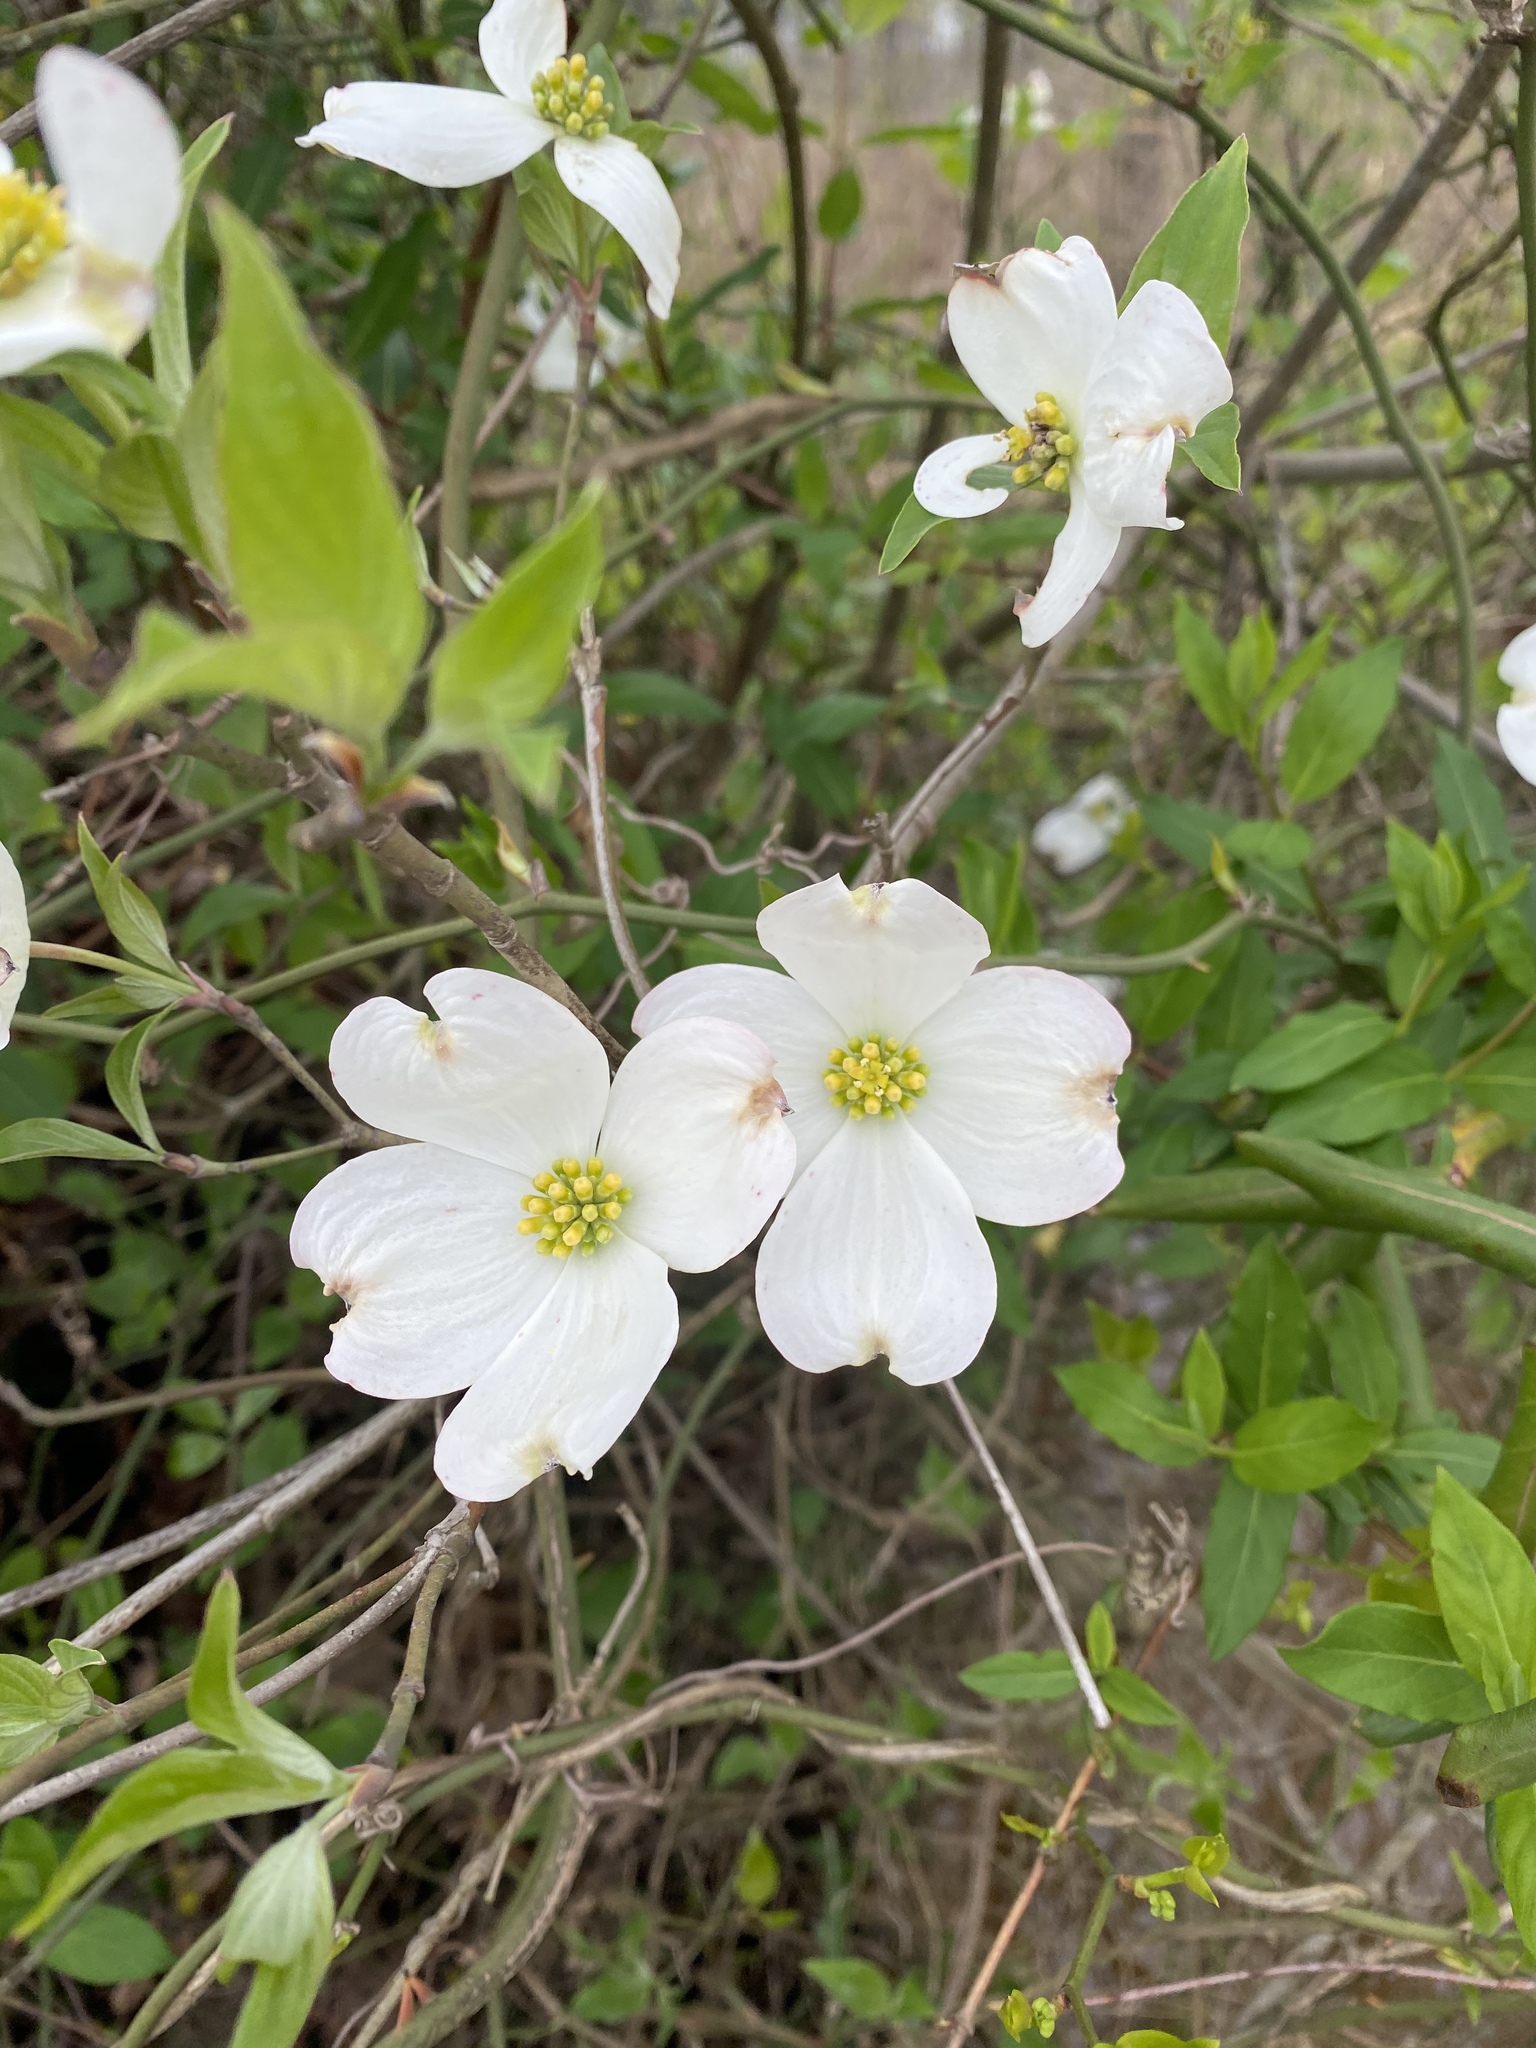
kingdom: Plantae
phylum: Tracheophyta
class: Magnoliopsida
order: Cornales
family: Cornaceae
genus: Cornus
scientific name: Cornus florida
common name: Flowering dogwood
